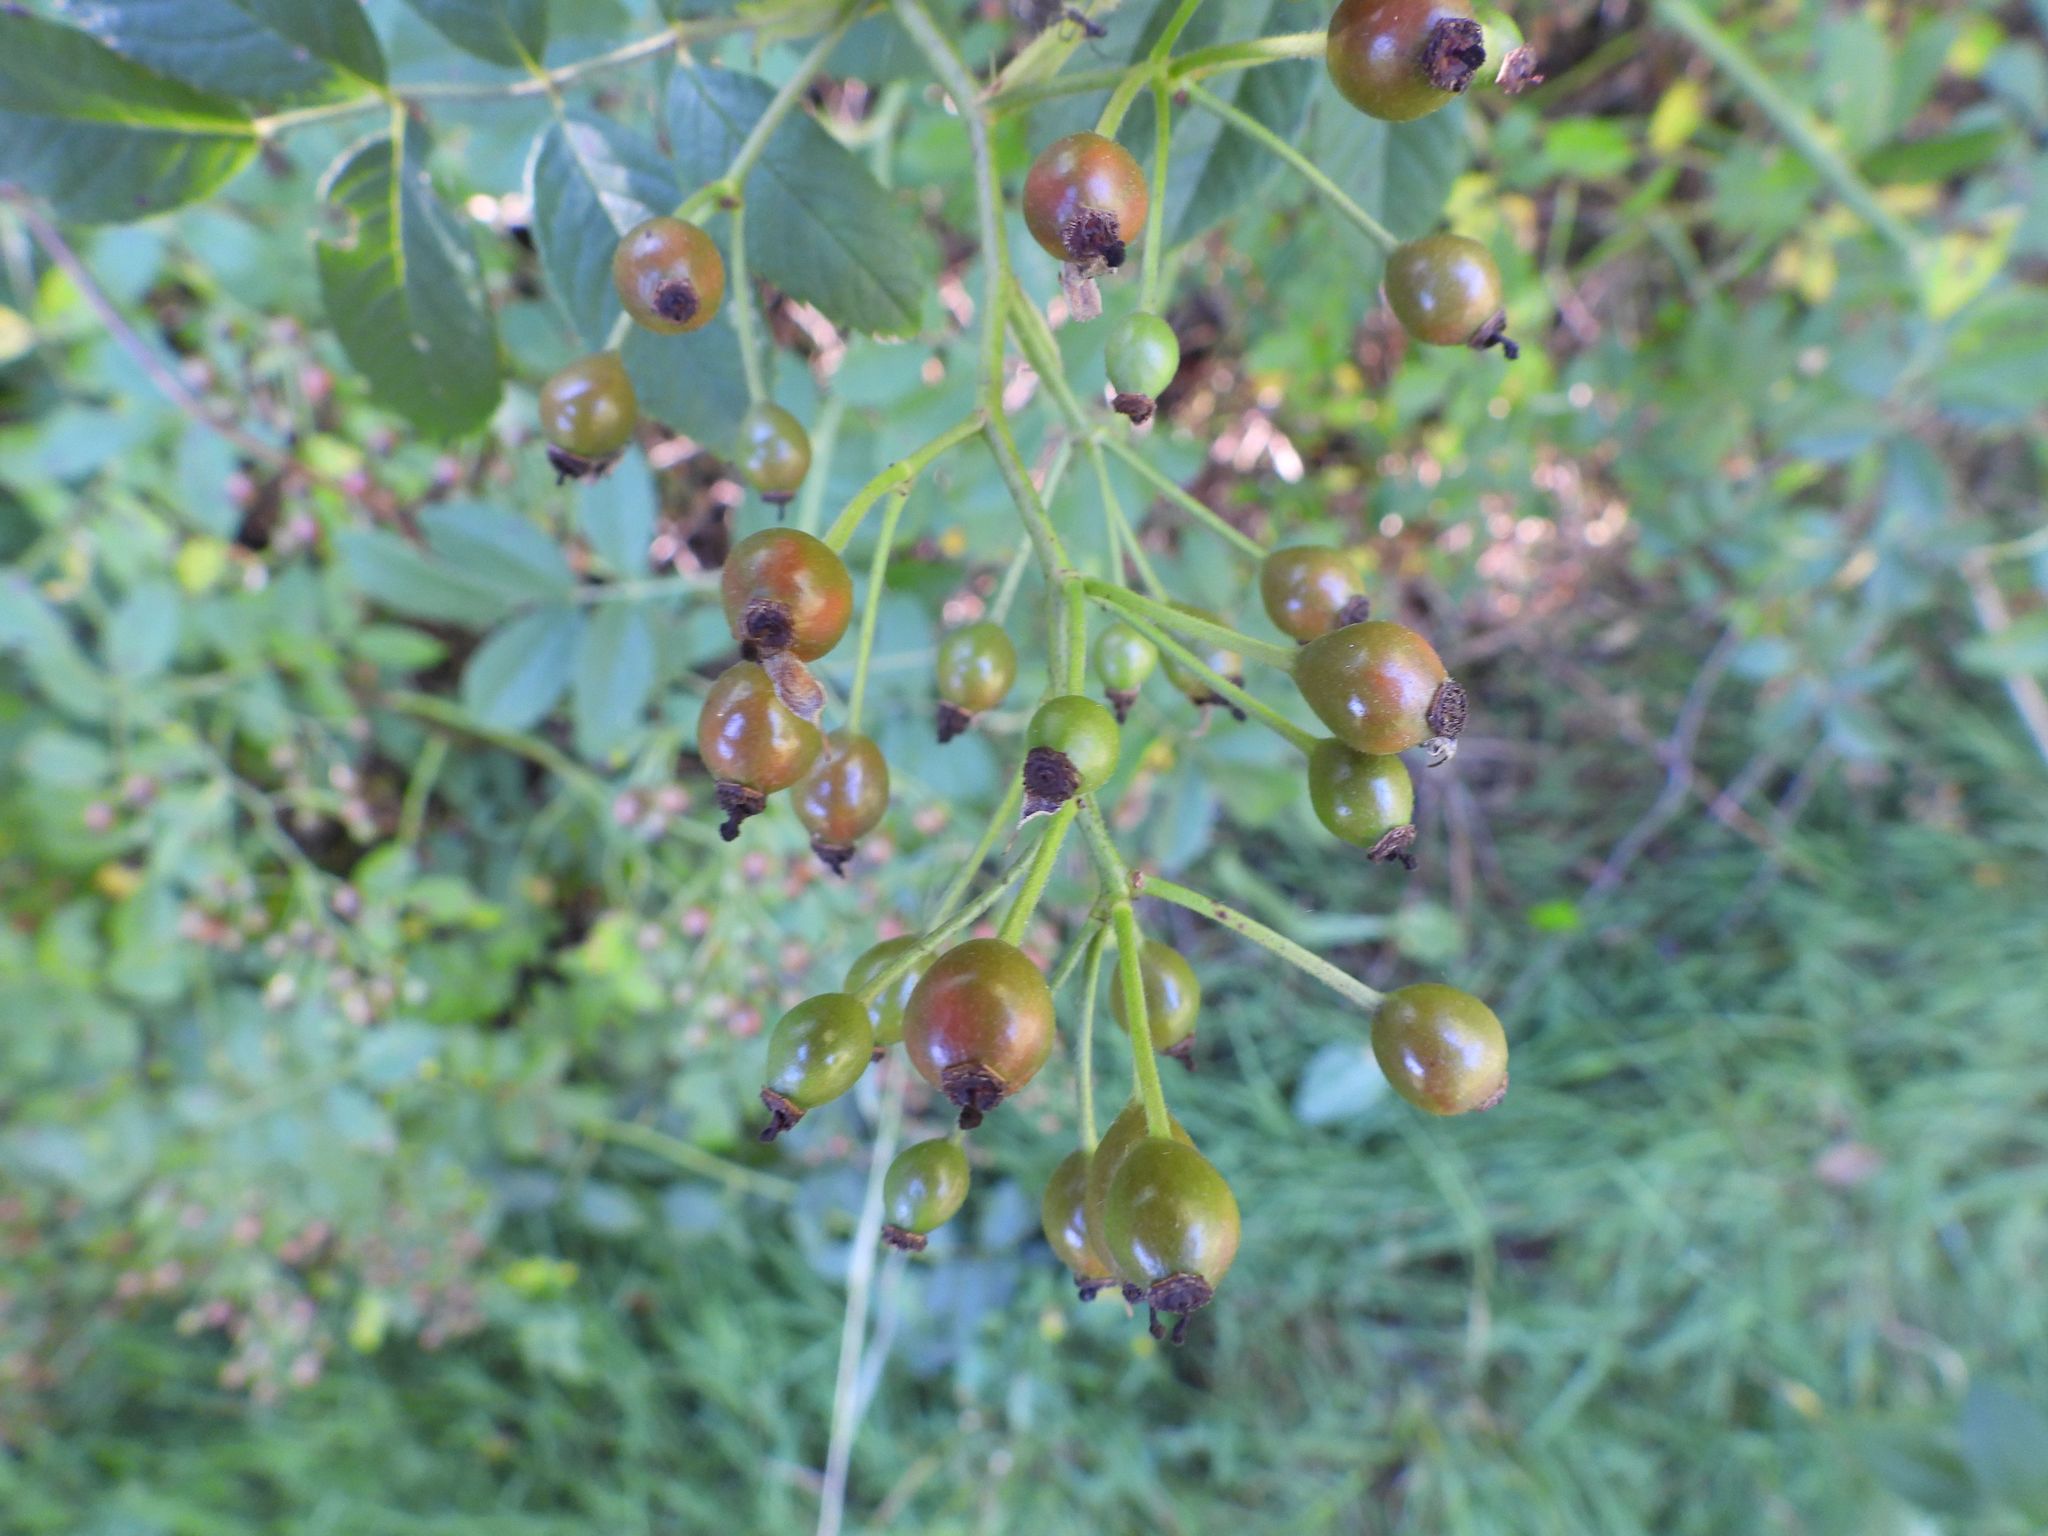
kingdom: Plantae
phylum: Tracheophyta
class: Magnoliopsida
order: Rosales
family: Rosaceae
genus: Rosa
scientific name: Rosa multiflora
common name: Multiflora rose
